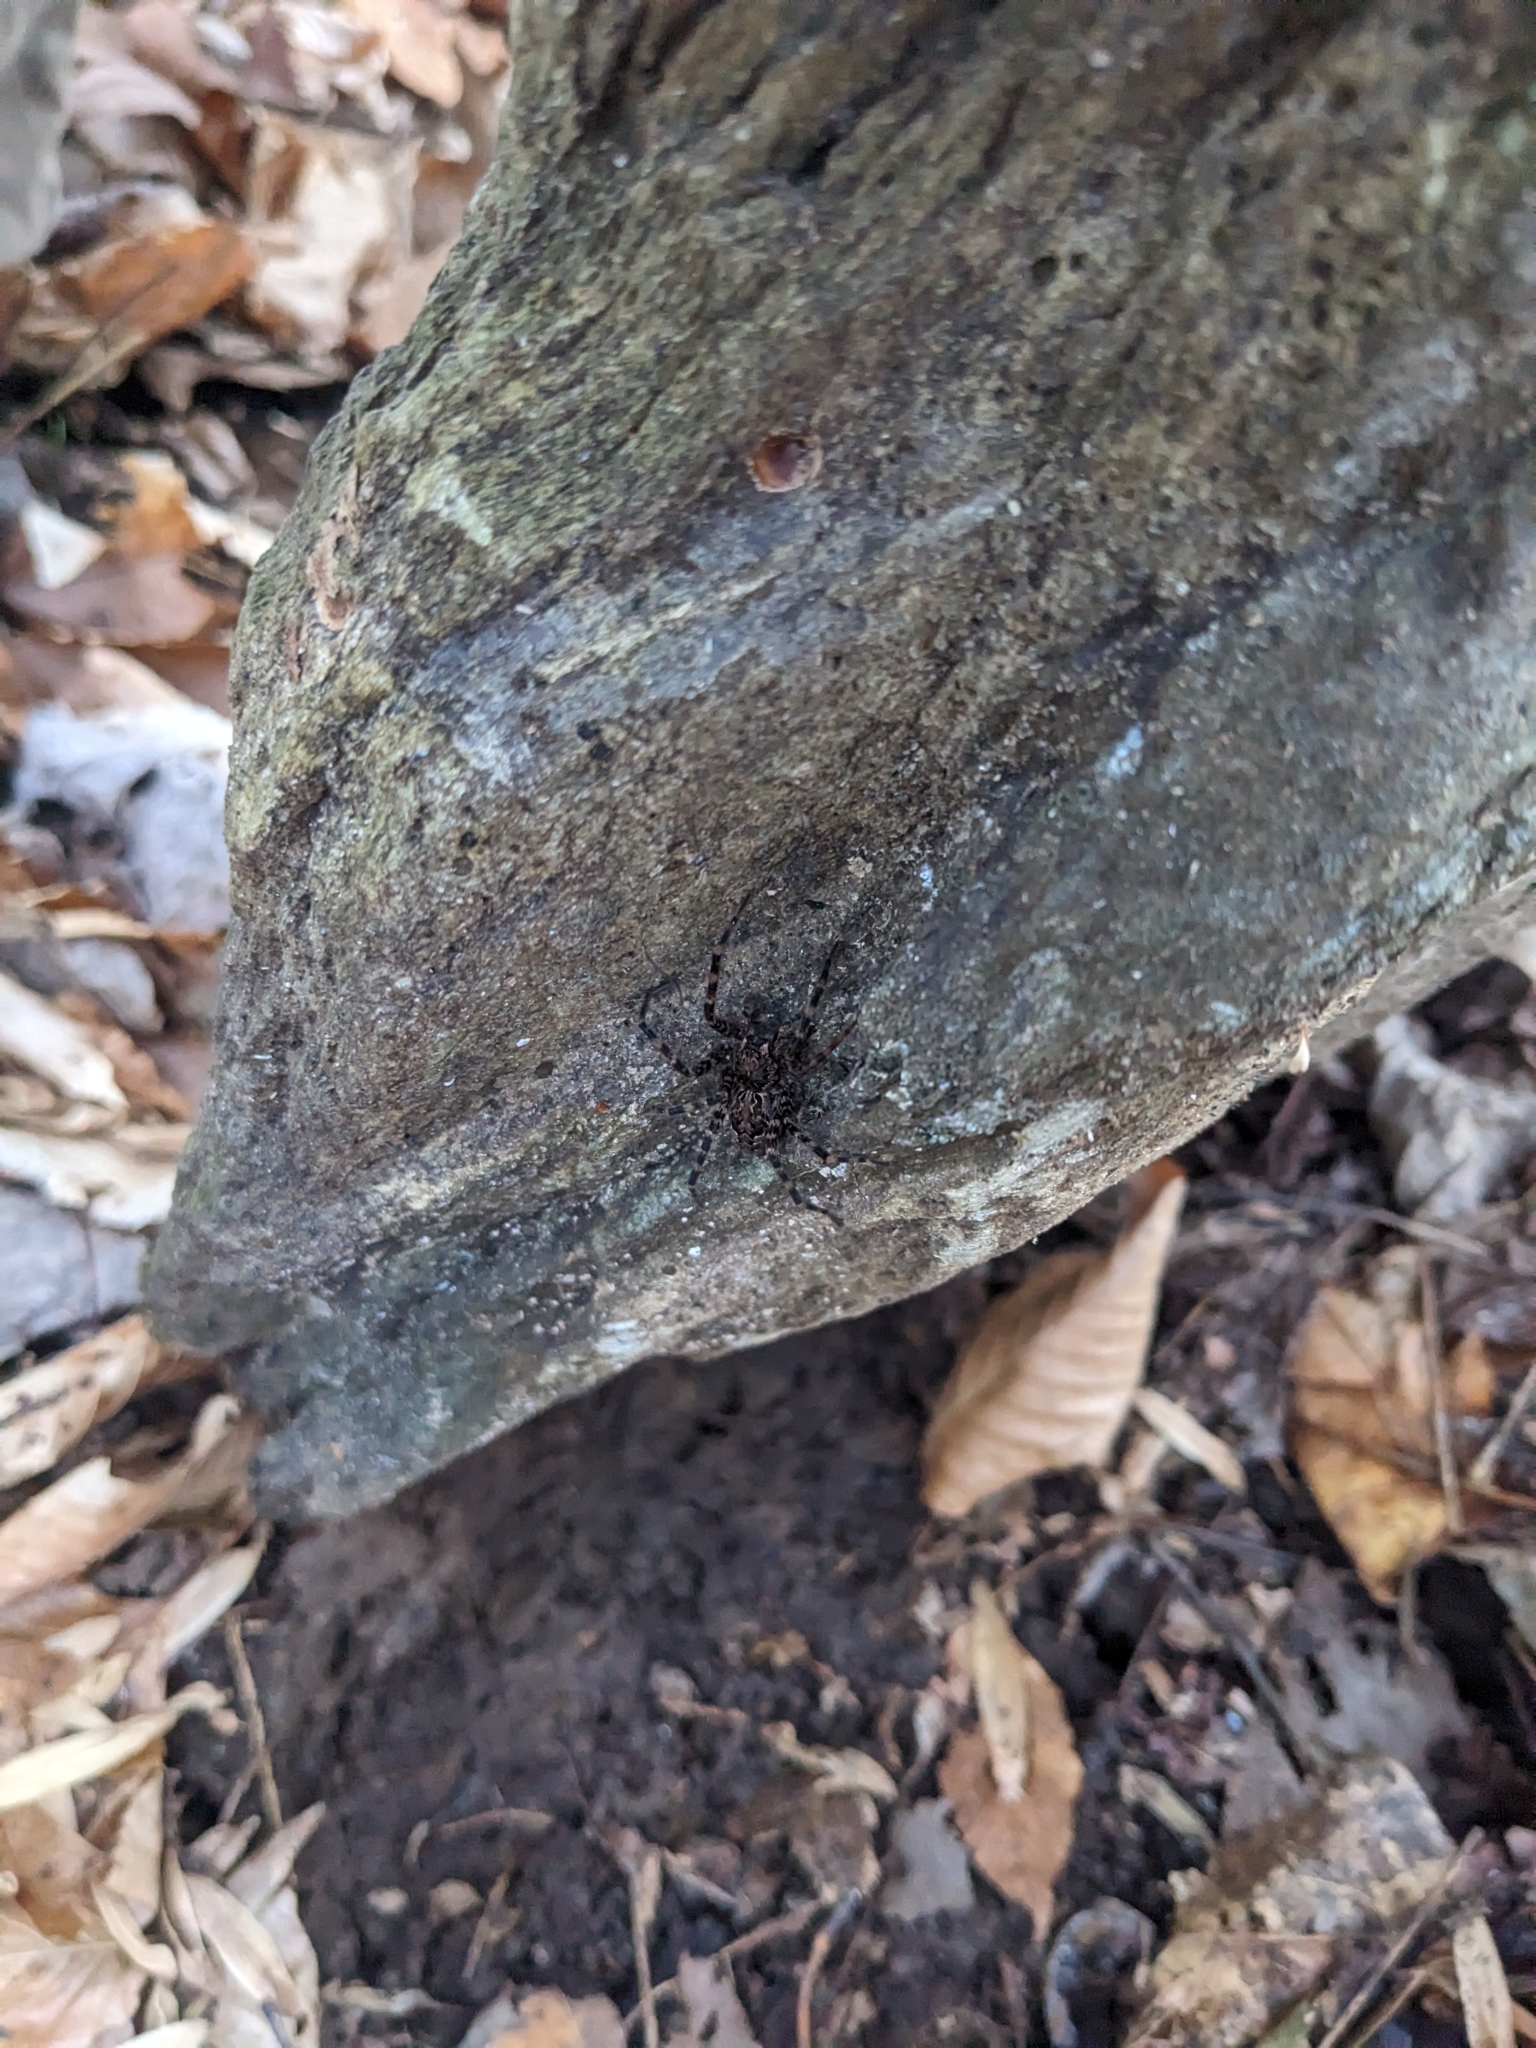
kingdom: Animalia
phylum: Arthropoda
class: Arachnida
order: Araneae
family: Pisauridae
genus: Dolomedes
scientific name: Dolomedes tenebrosus
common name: Dark fishing spider
